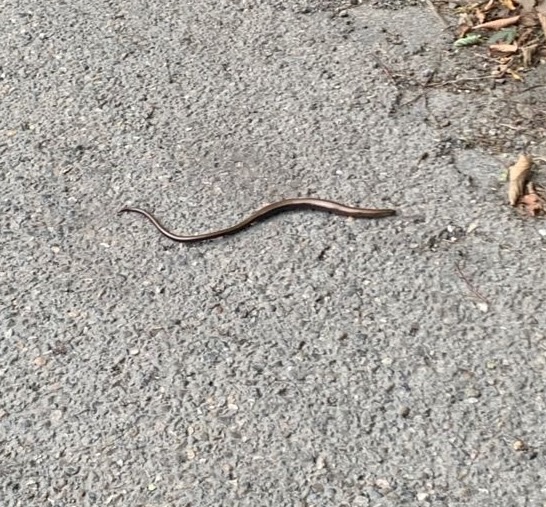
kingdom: Animalia
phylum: Chordata
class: Squamata
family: Anguidae
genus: Anguis
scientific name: Anguis fragilis
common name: Slow worm
